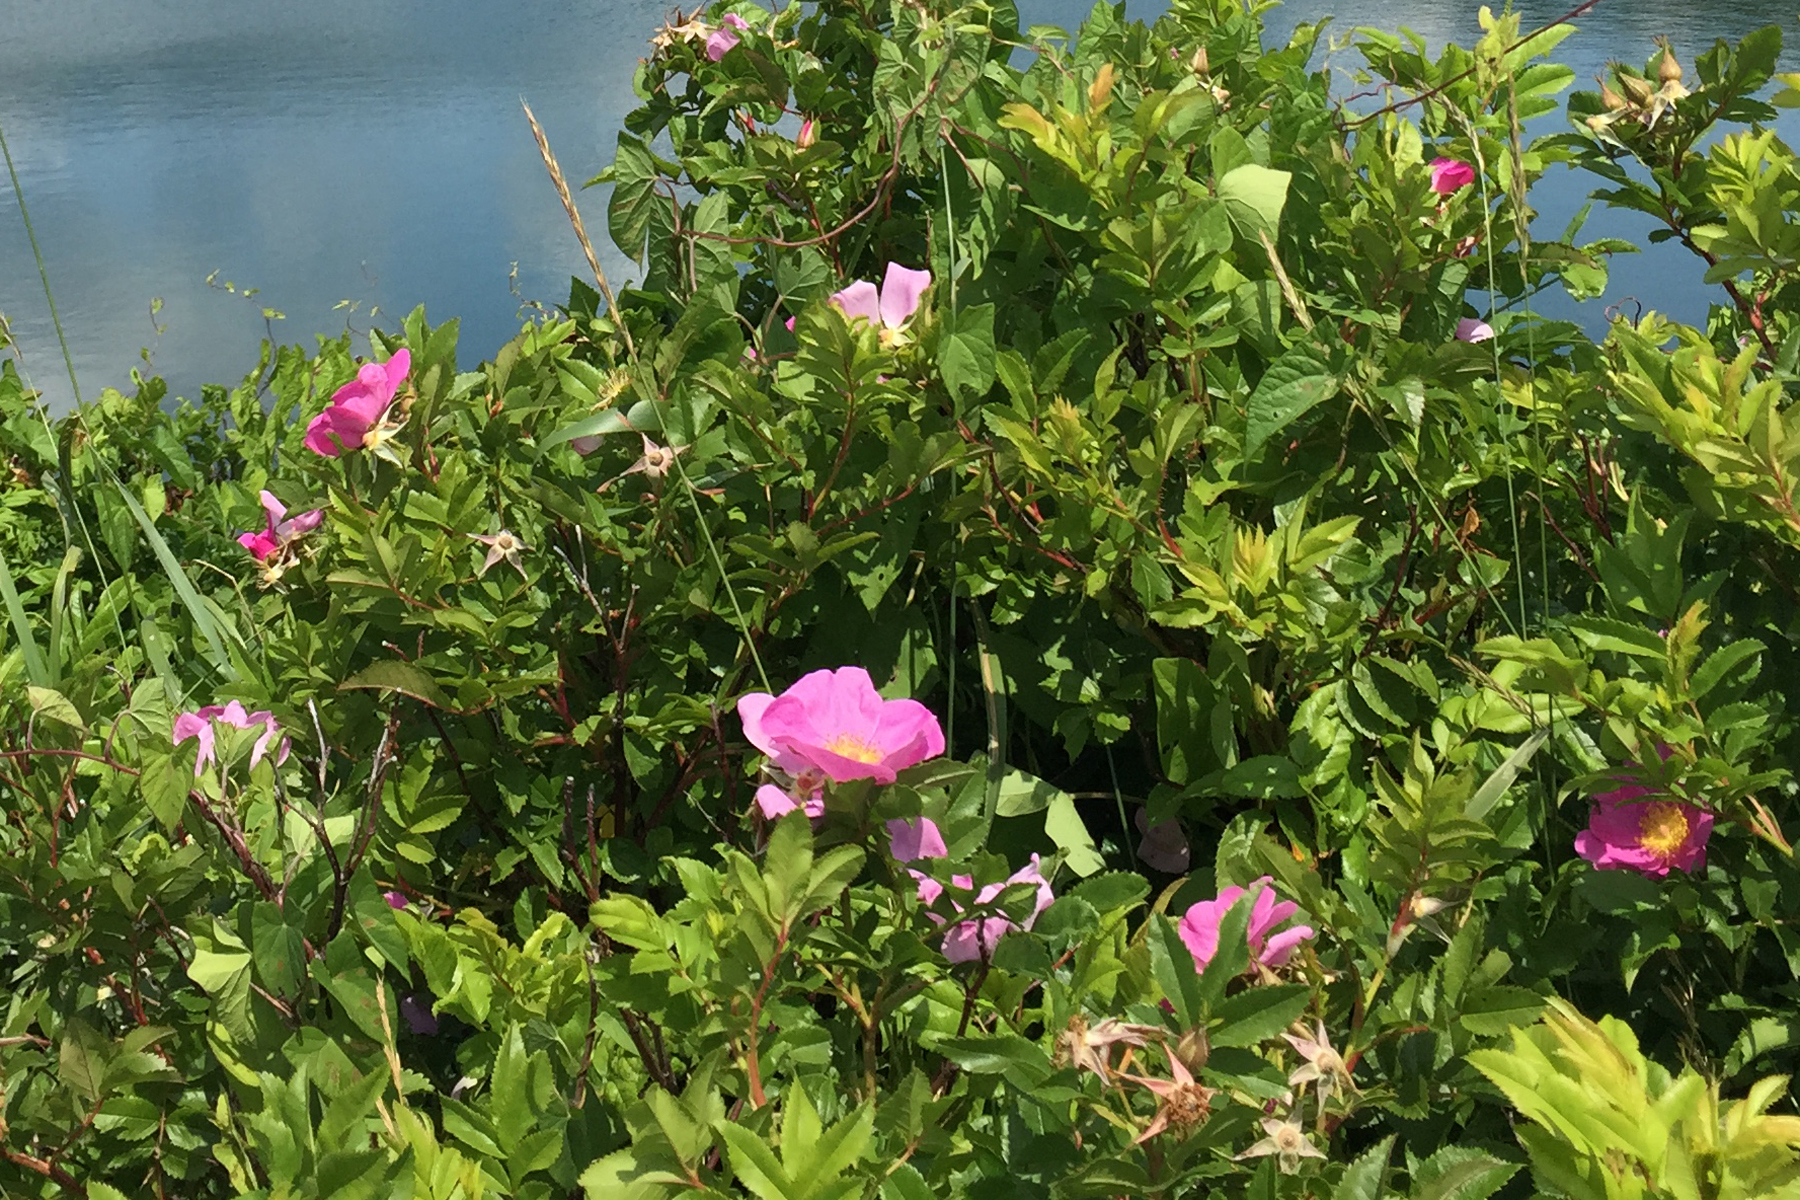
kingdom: Plantae
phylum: Tracheophyta
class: Magnoliopsida
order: Rosales
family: Rosaceae
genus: Rosa
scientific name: Rosa rugosa
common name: Japanese rose
